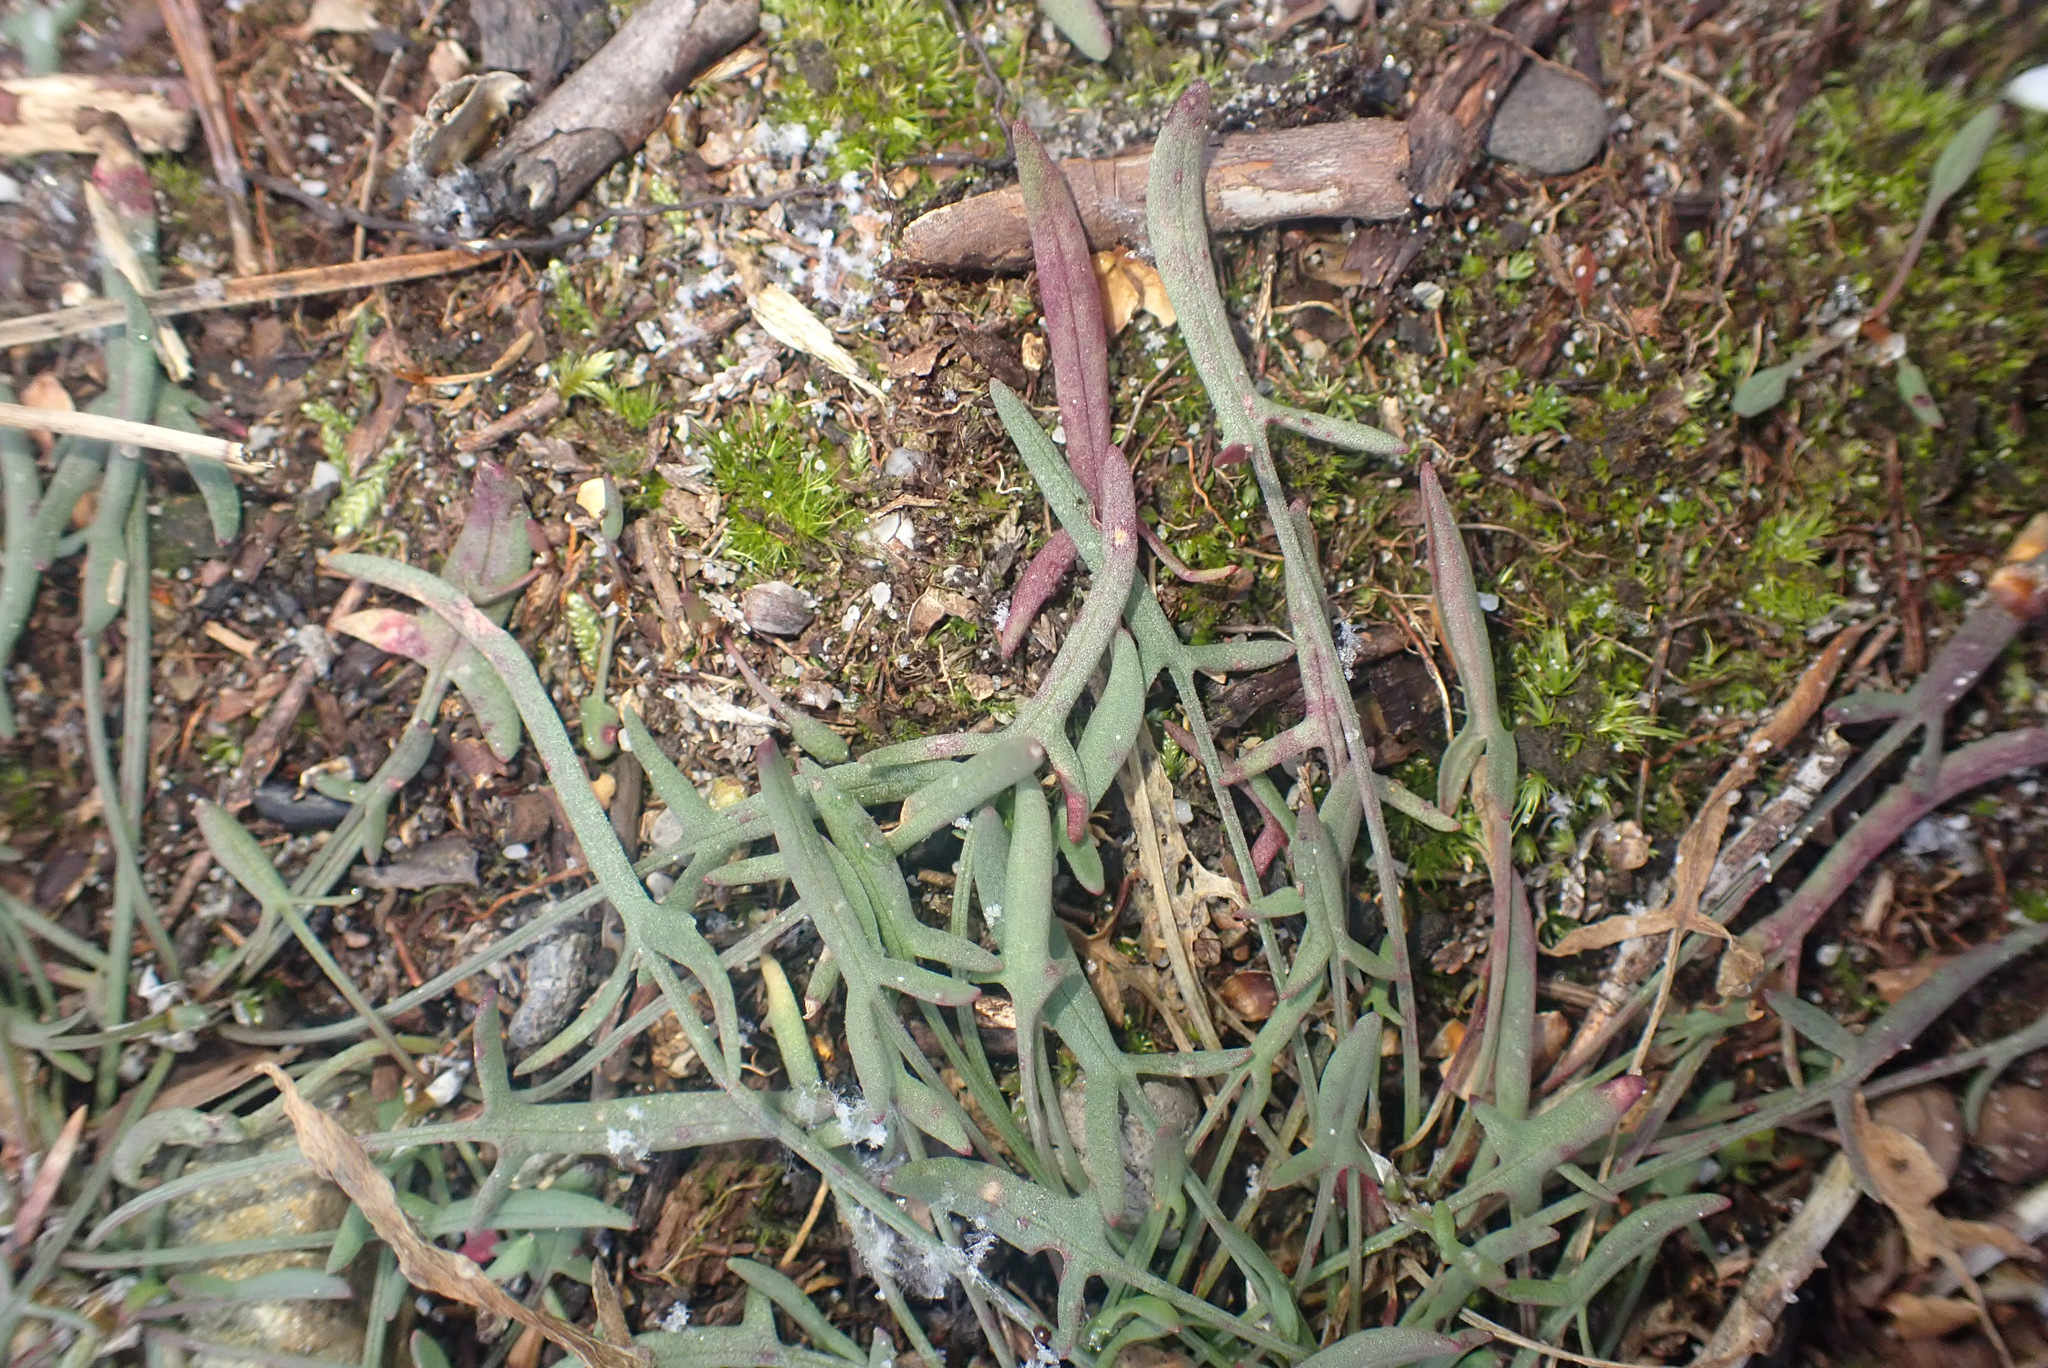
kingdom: Plantae
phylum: Tracheophyta
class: Magnoliopsida
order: Caryophyllales
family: Polygonaceae
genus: Rumex
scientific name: Rumex acetosella
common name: Common sheep sorrel
